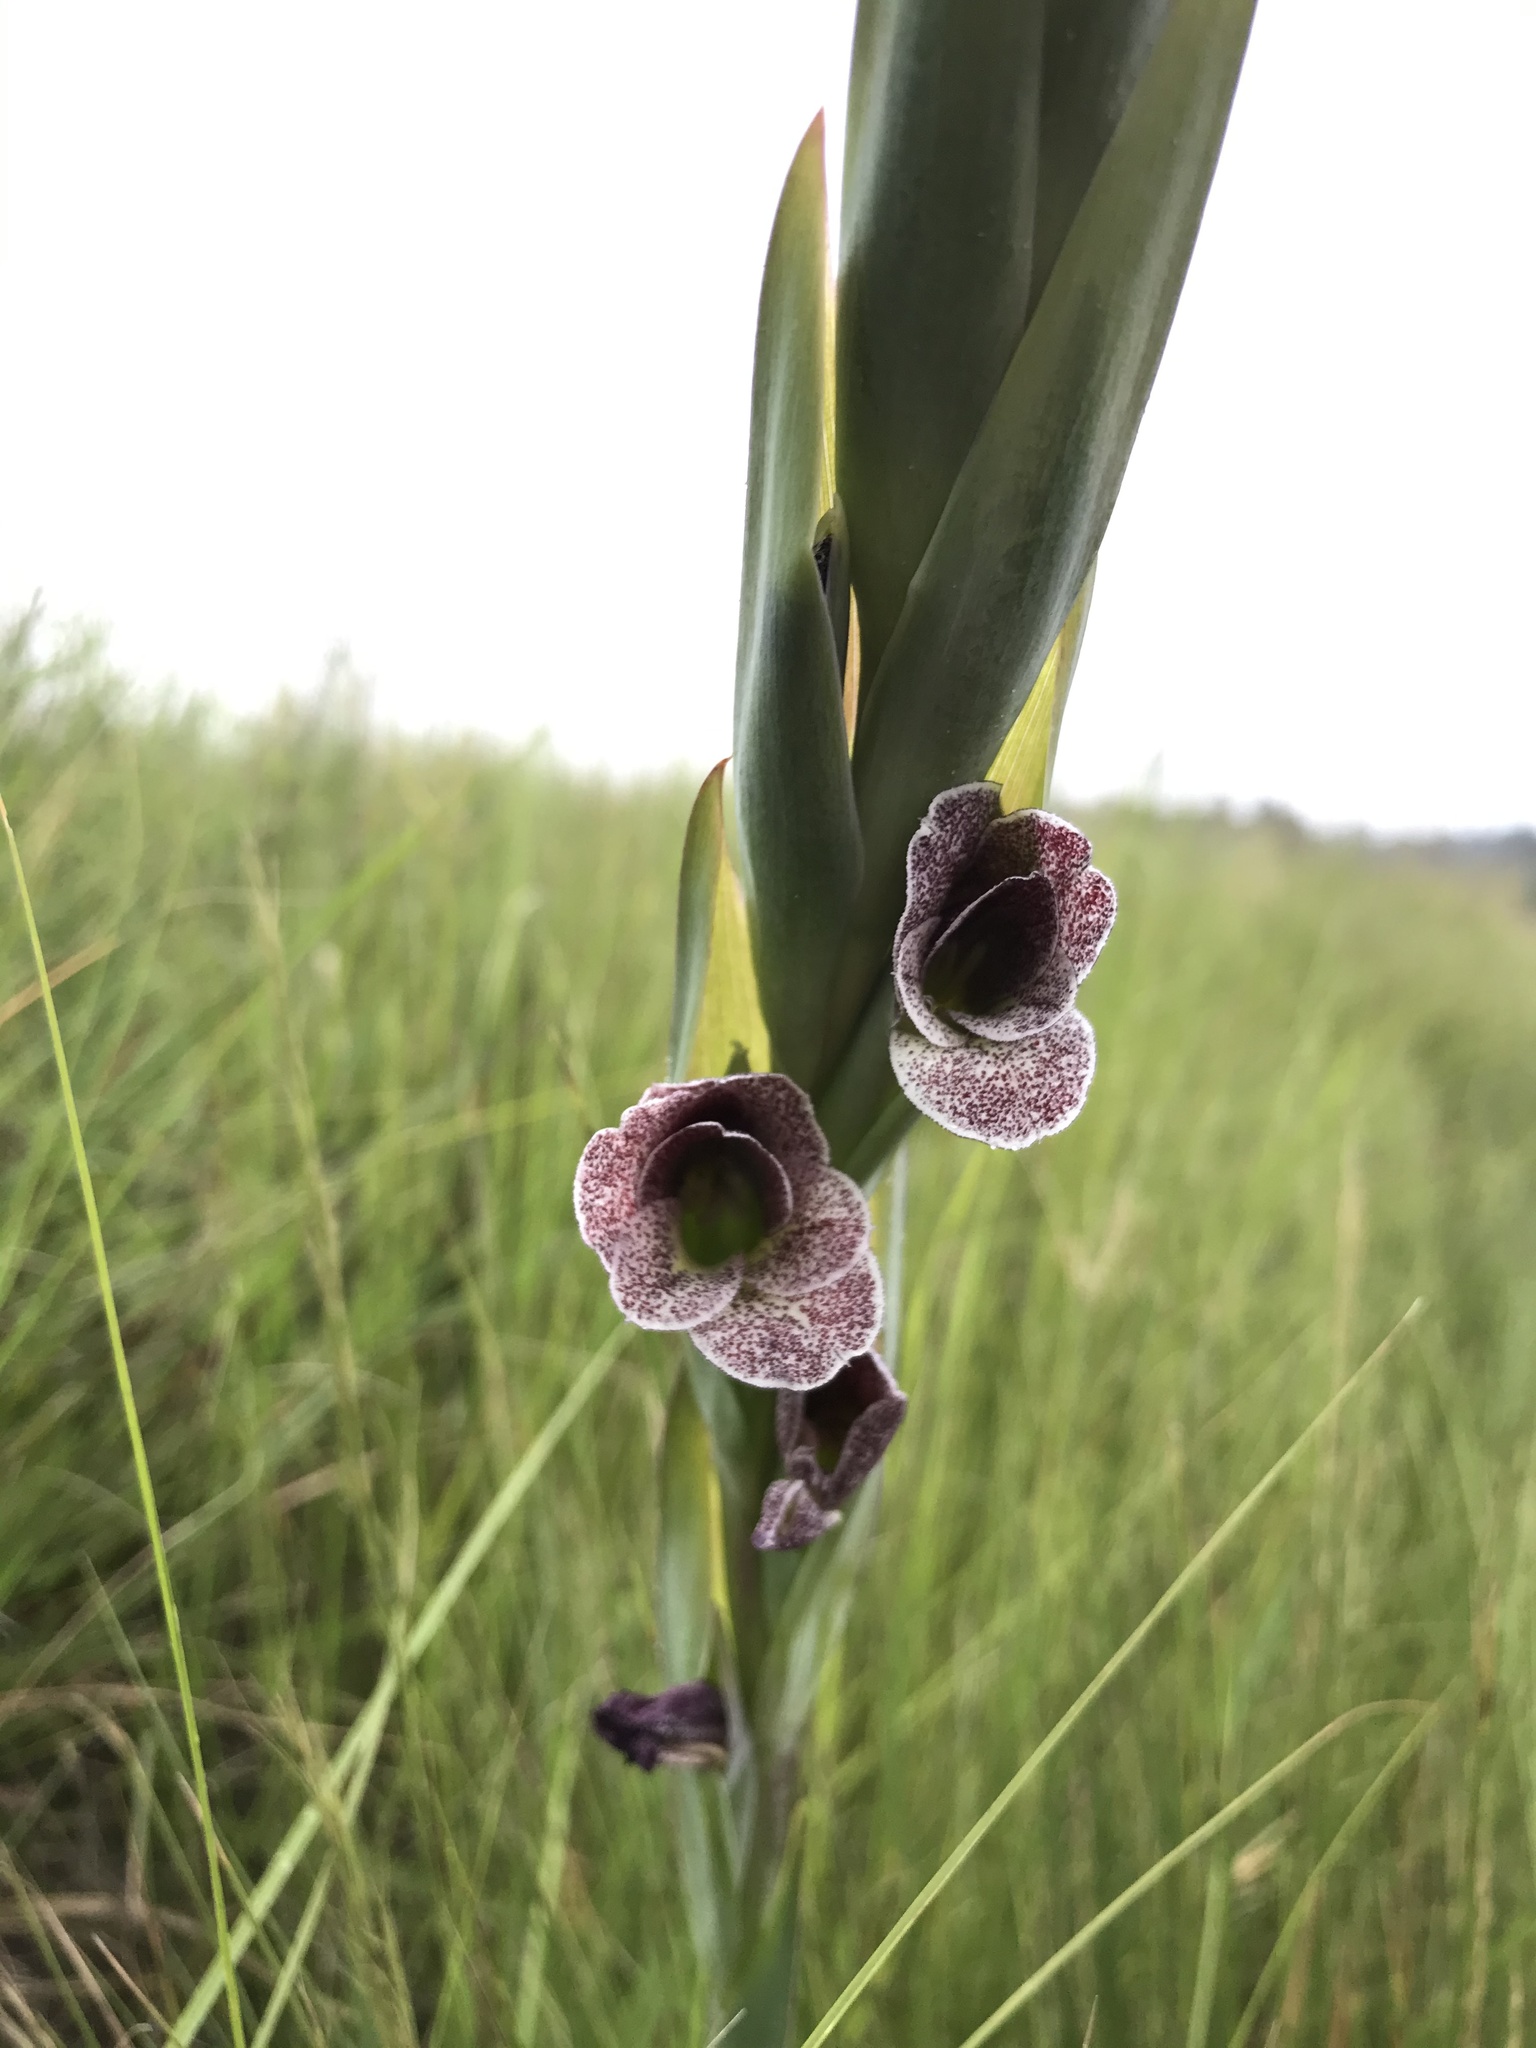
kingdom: Plantae
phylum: Tracheophyta
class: Liliopsida
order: Asparagales
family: Iridaceae
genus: Gladiolus
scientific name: Gladiolus ecklonii
